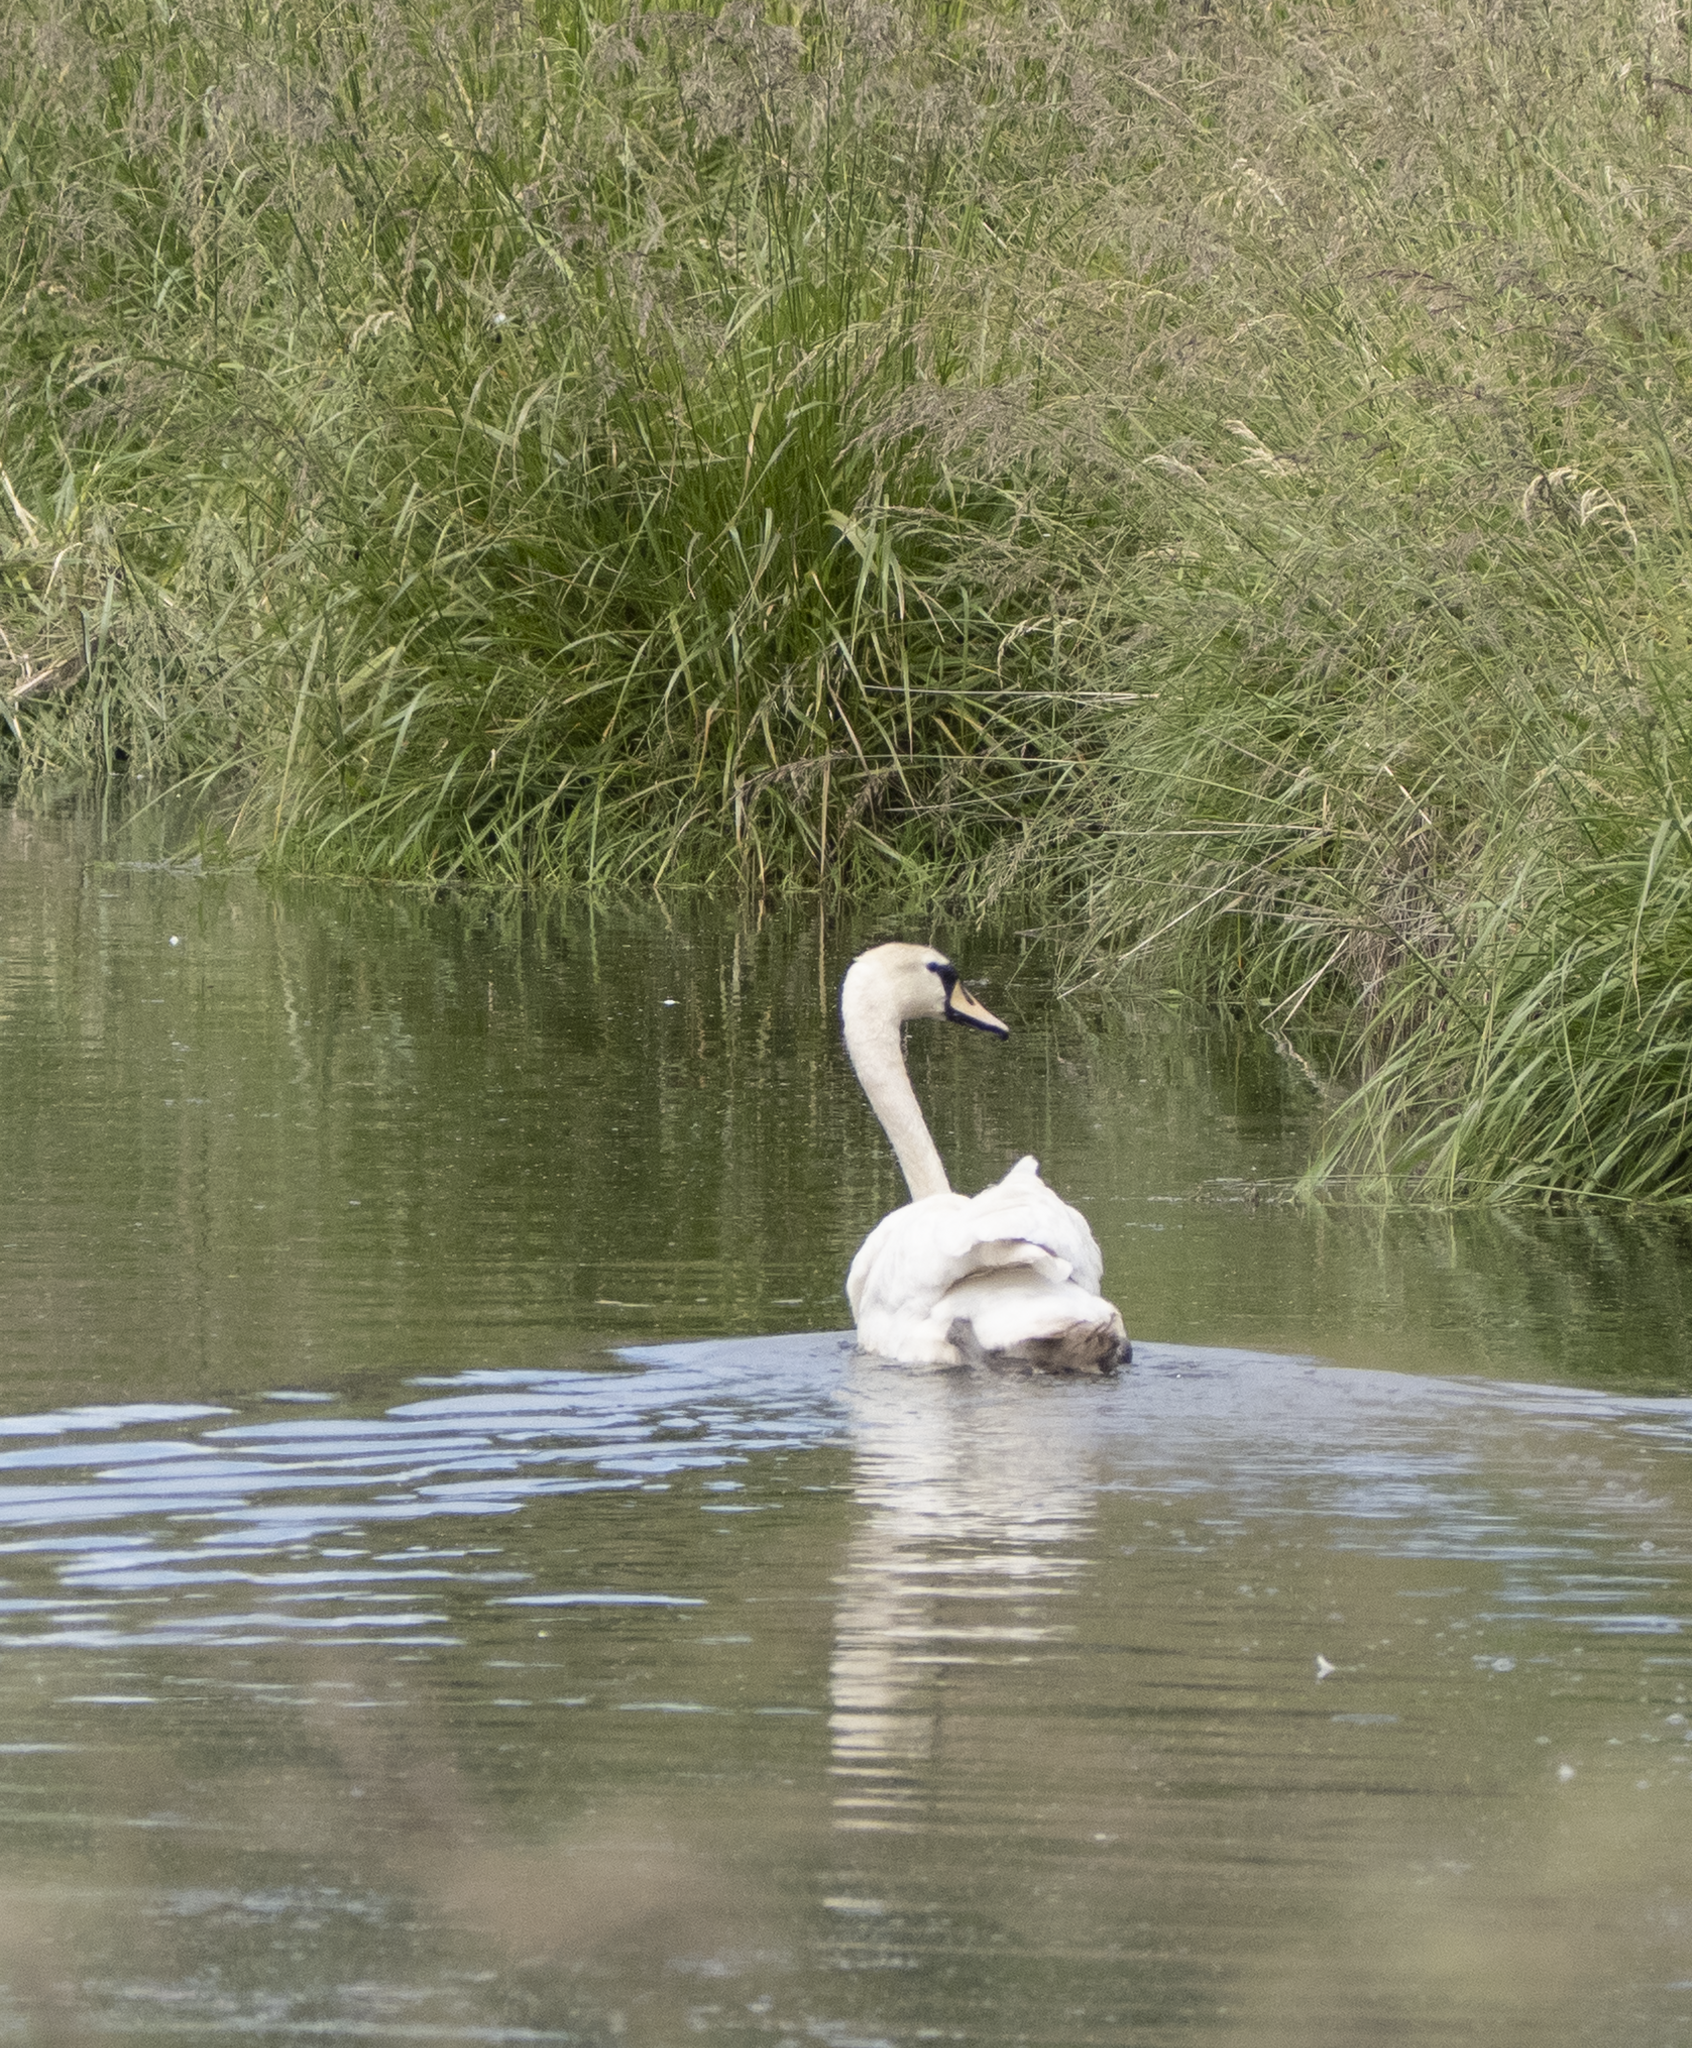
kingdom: Animalia
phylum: Chordata
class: Aves
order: Anseriformes
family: Anatidae
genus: Cygnus
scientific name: Cygnus olor
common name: Mute swan
